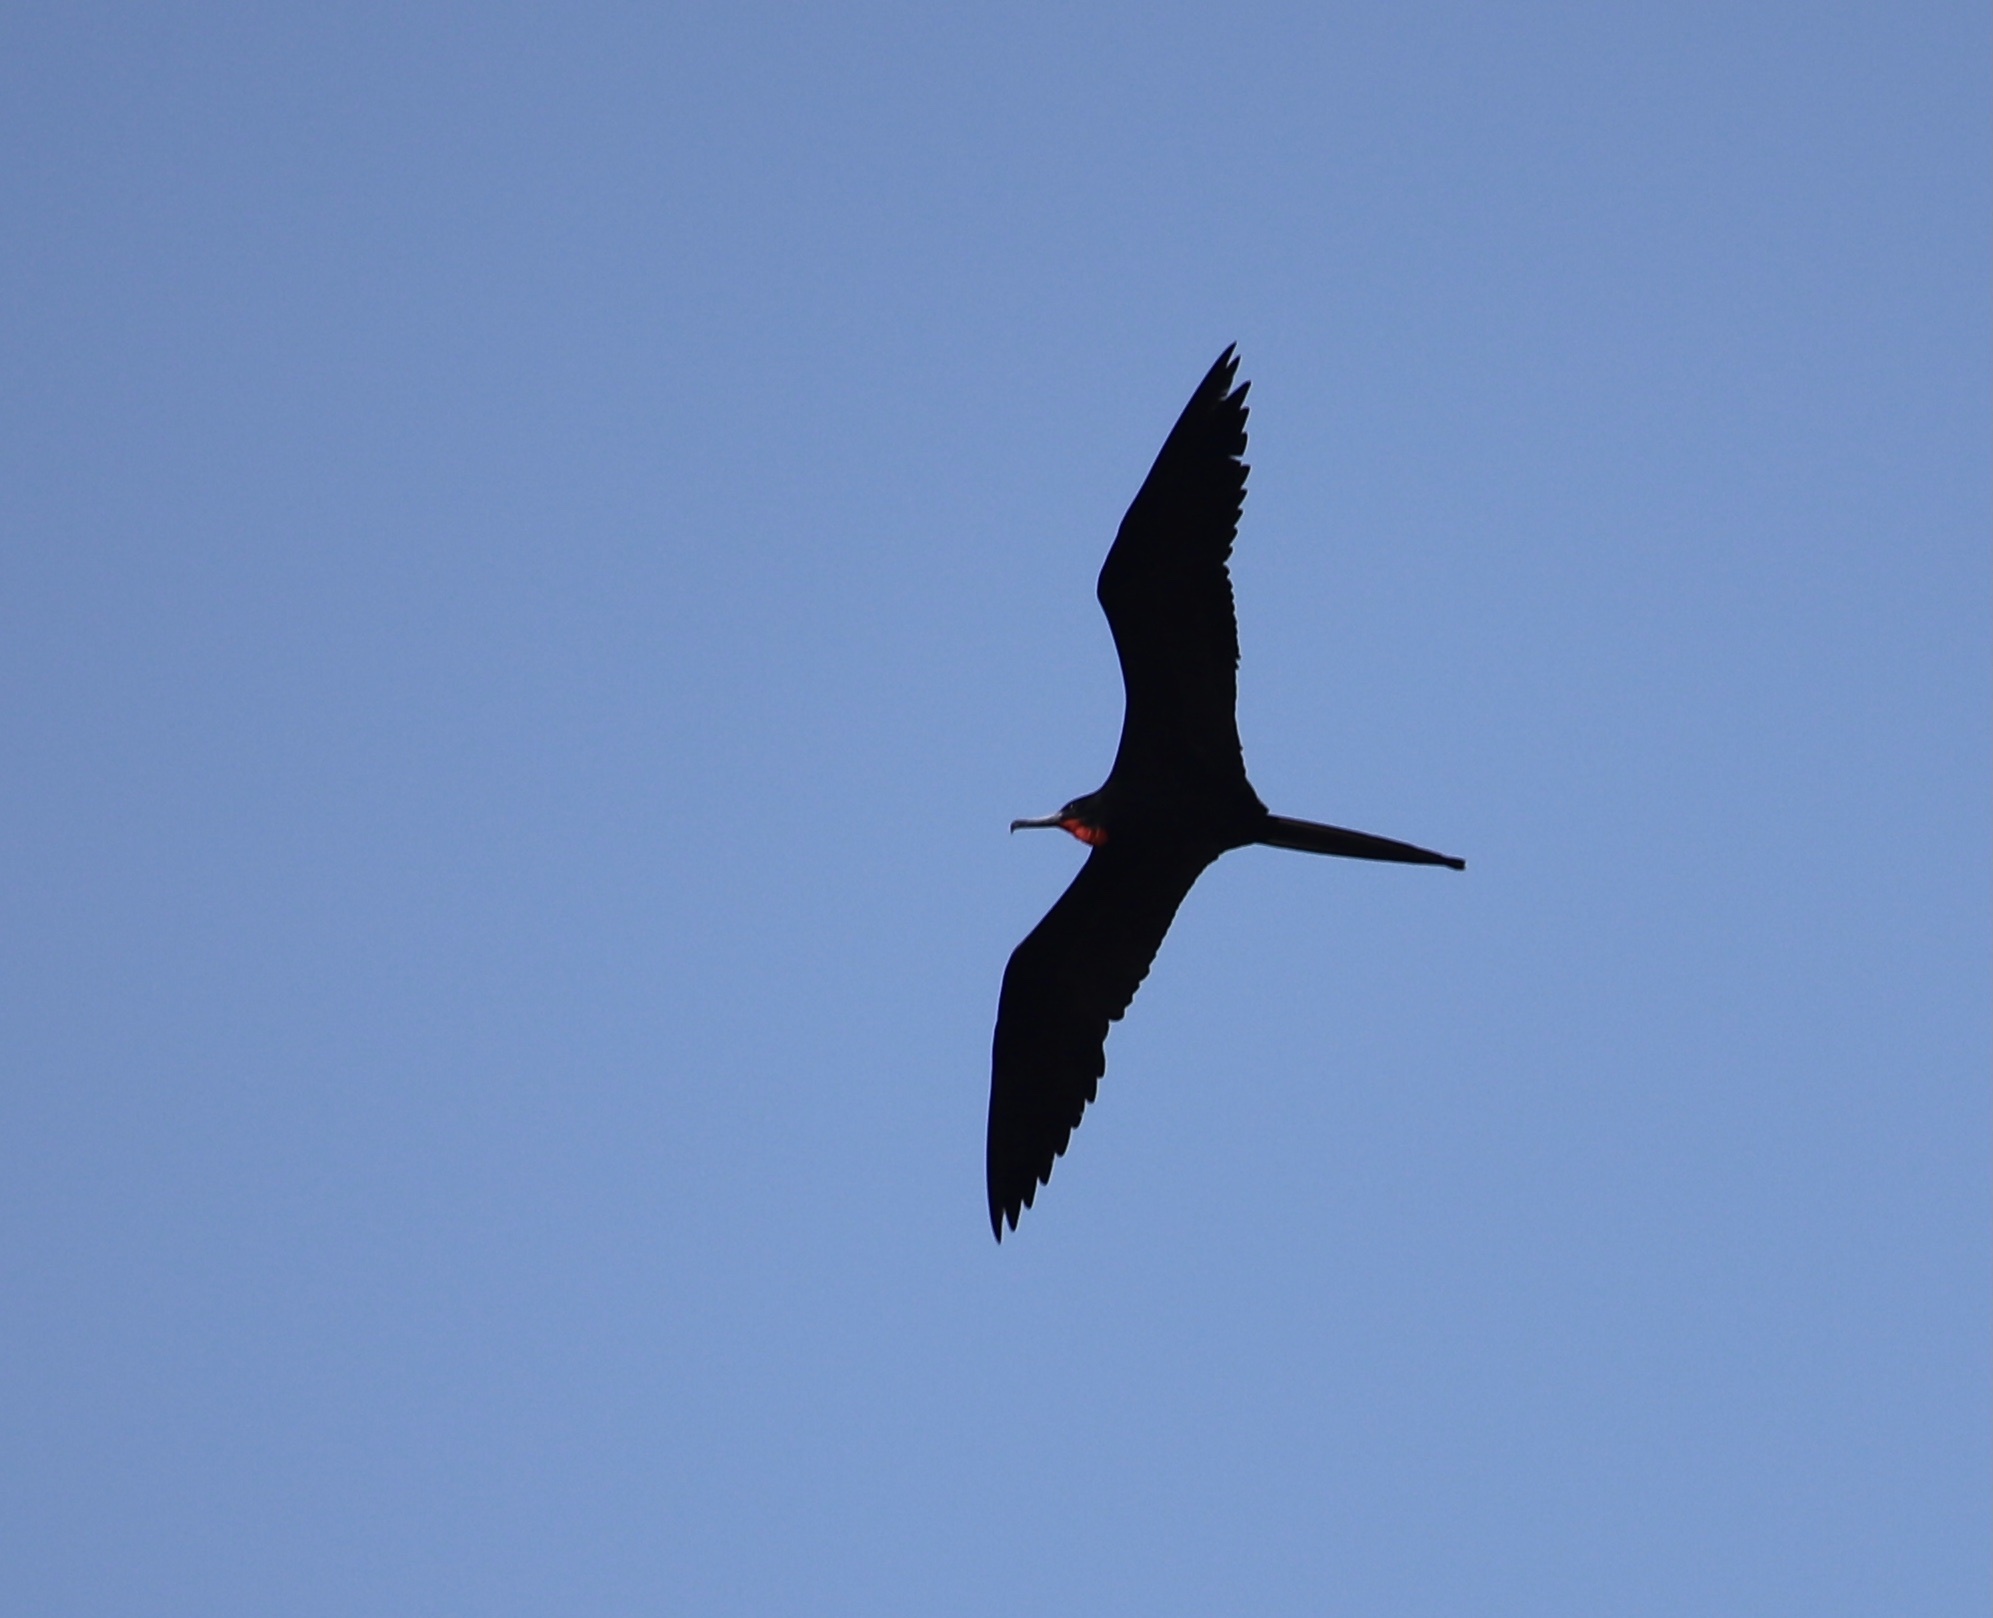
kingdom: Animalia
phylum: Chordata
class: Aves
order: Suliformes
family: Fregatidae
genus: Fregata
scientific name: Fregata magnificens
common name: Magnificent frigatebird
